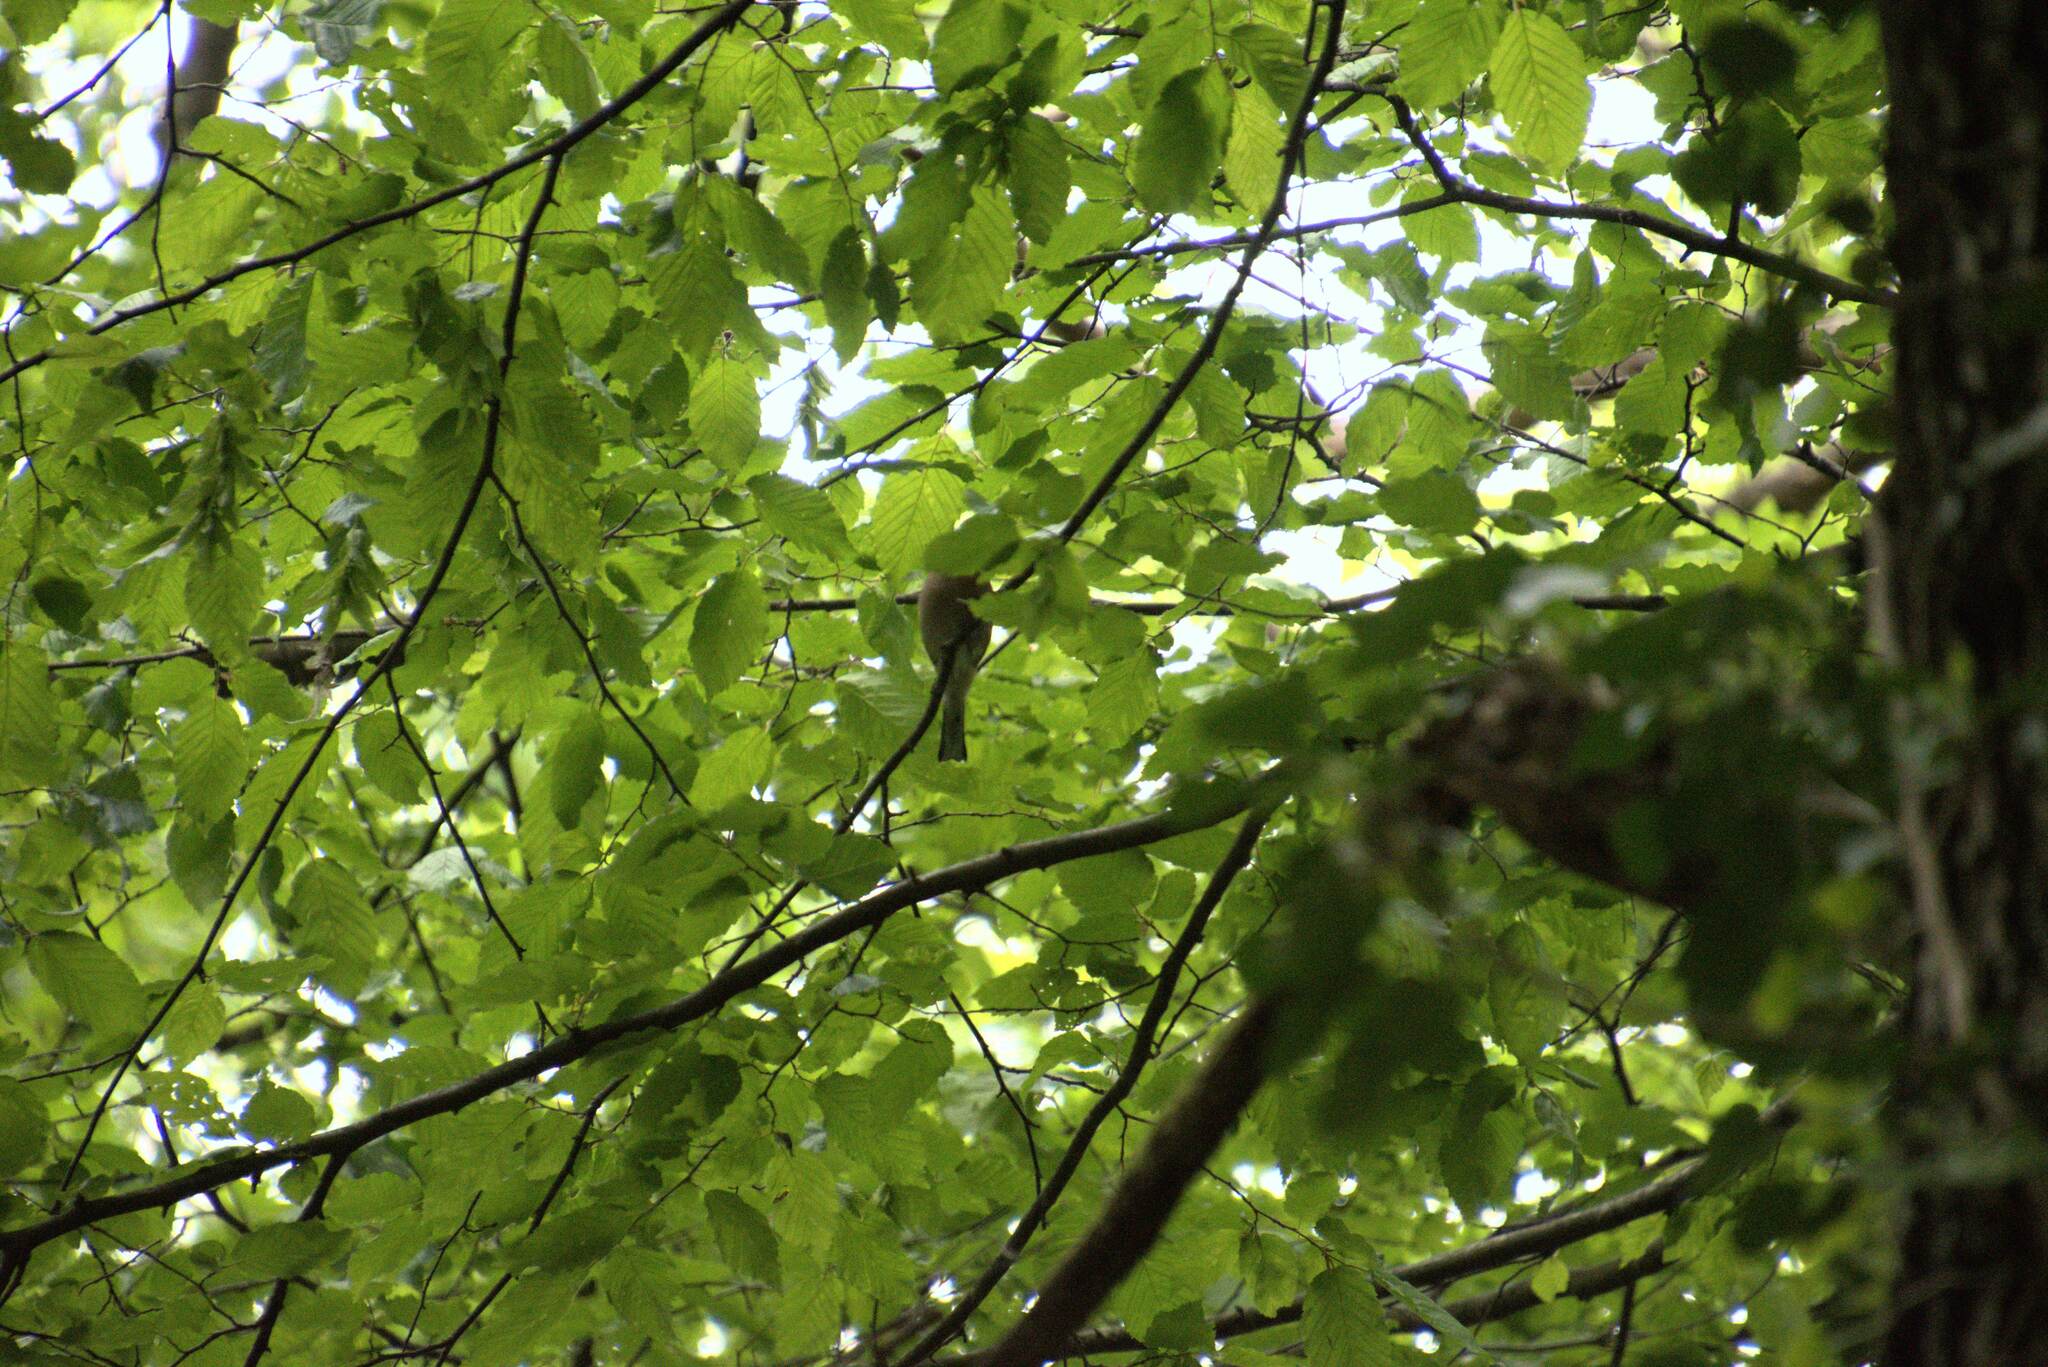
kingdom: Animalia
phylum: Chordata
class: Aves
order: Passeriformes
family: Fringillidae
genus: Fringilla
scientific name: Fringilla coelebs
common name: Common chaffinch
